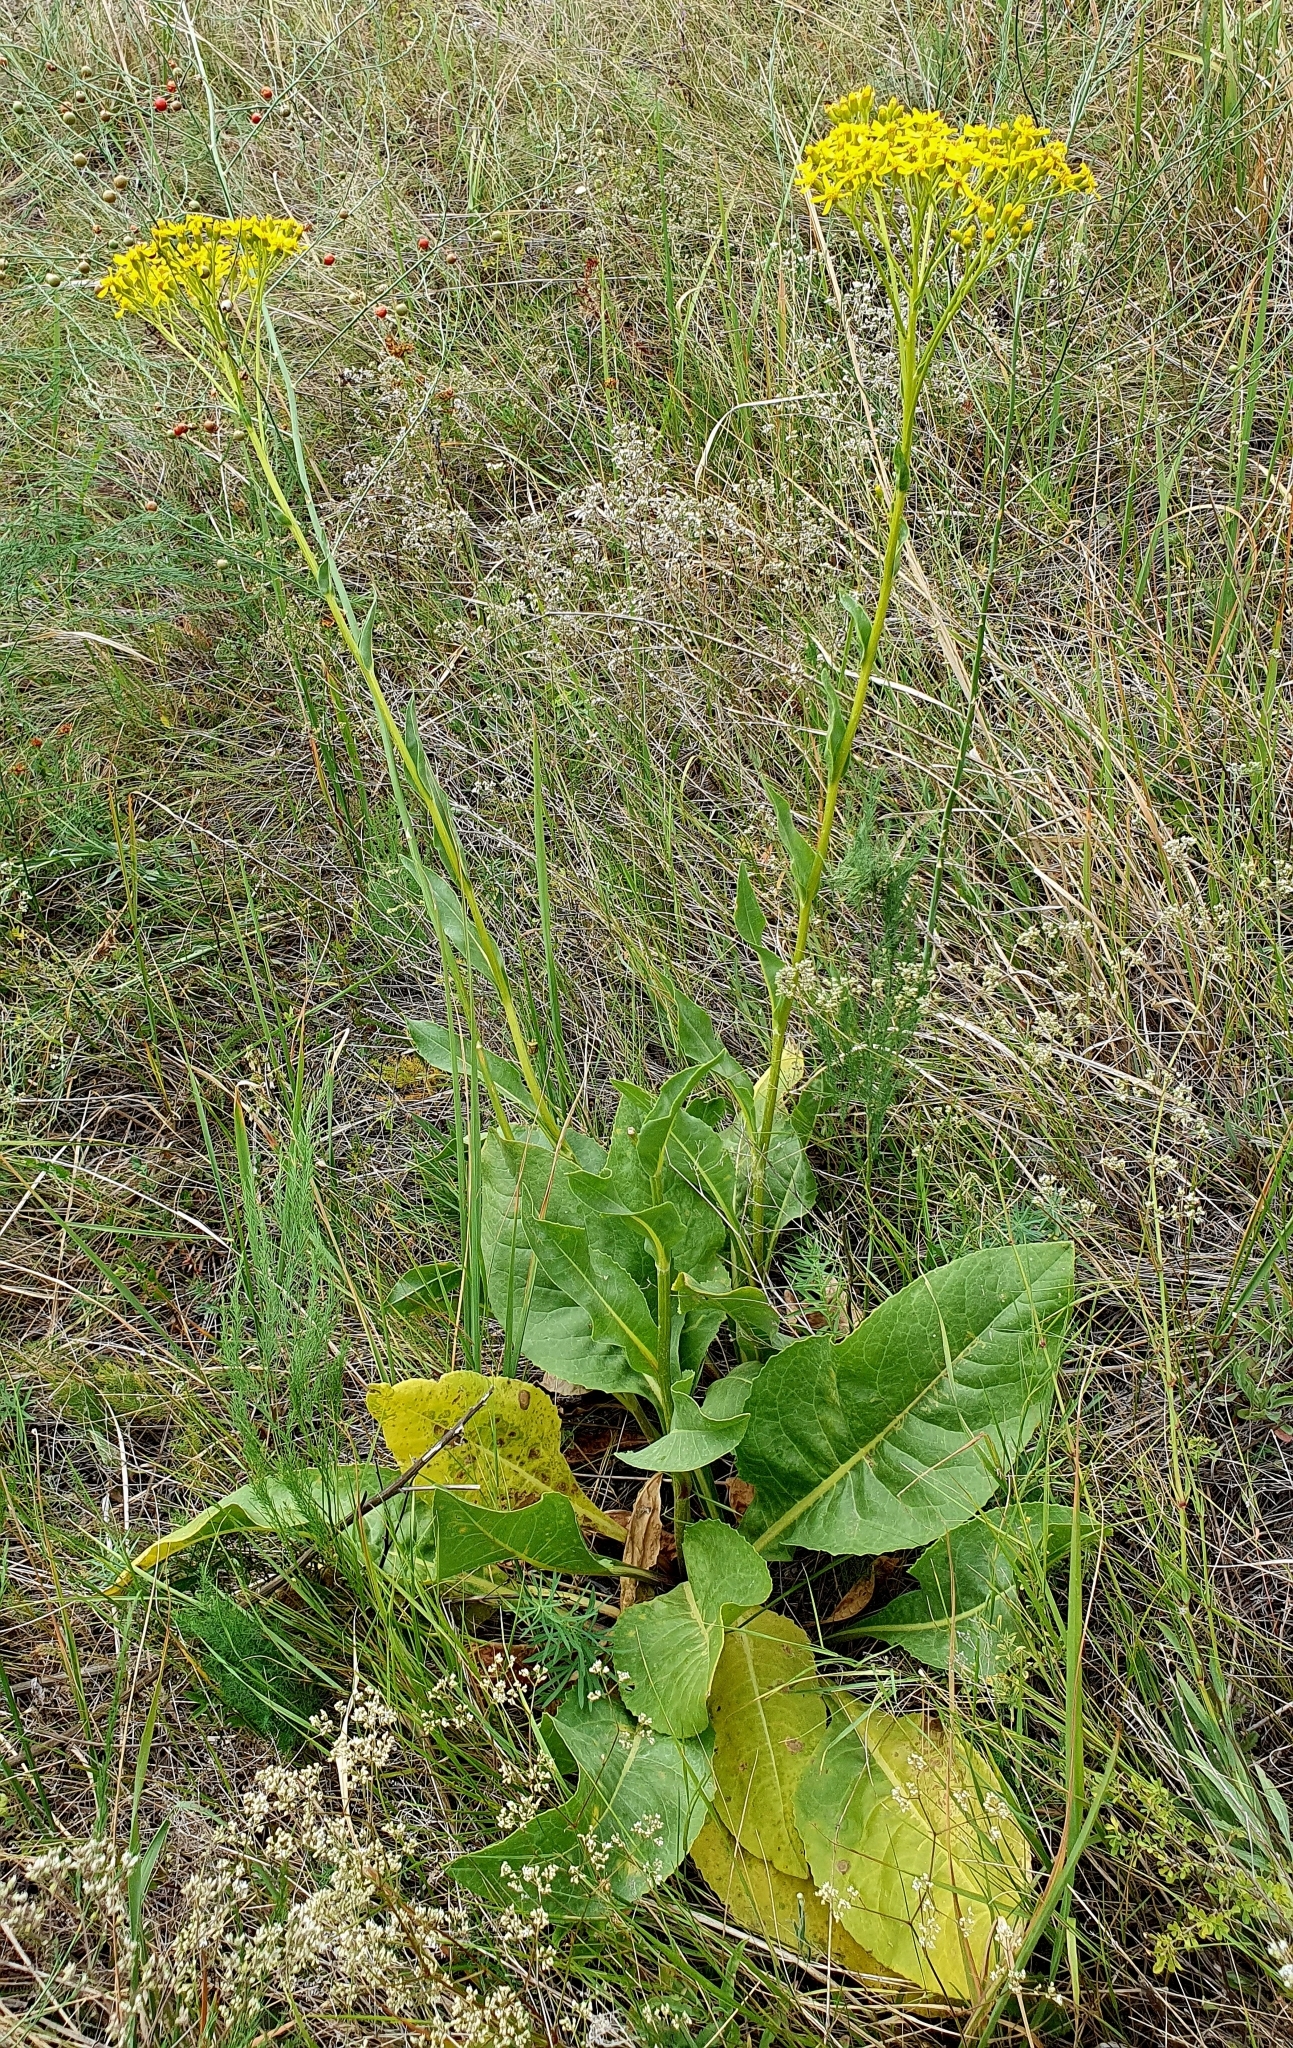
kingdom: Plantae
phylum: Tracheophyta
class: Magnoliopsida
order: Asterales
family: Asteraceae
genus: Senecio
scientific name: Senecio doria
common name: Golden ragwort
